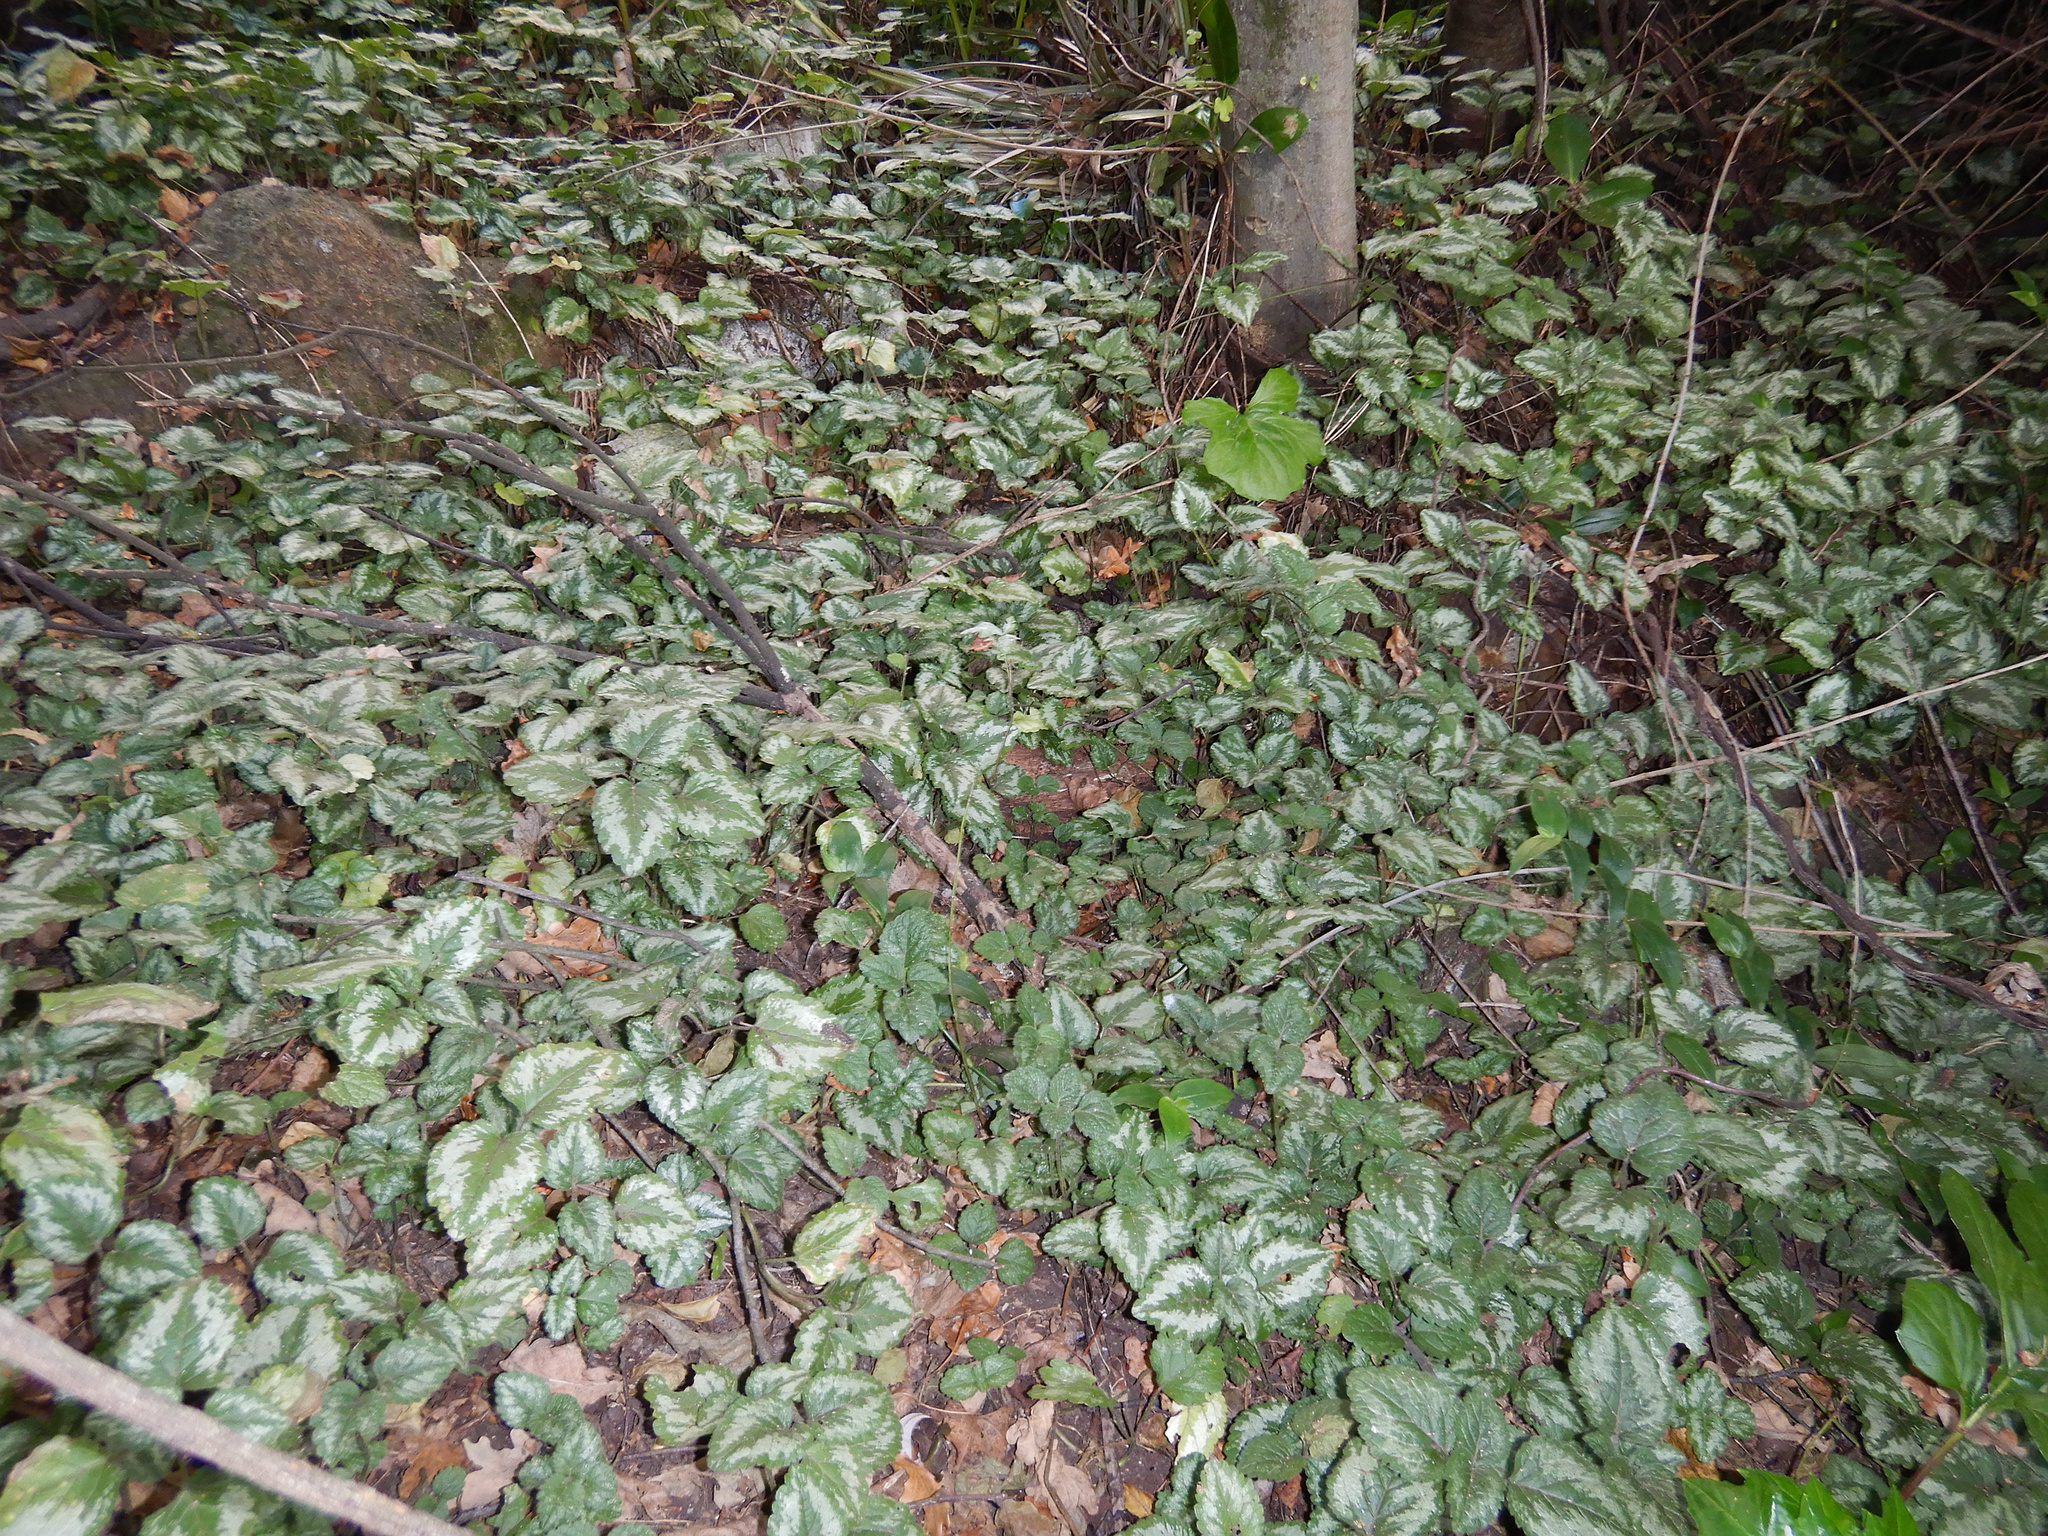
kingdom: Plantae
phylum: Tracheophyta
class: Magnoliopsida
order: Lamiales
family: Lamiaceae
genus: Lamium
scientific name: Lamium galeobdolon
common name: Yellow archangel
